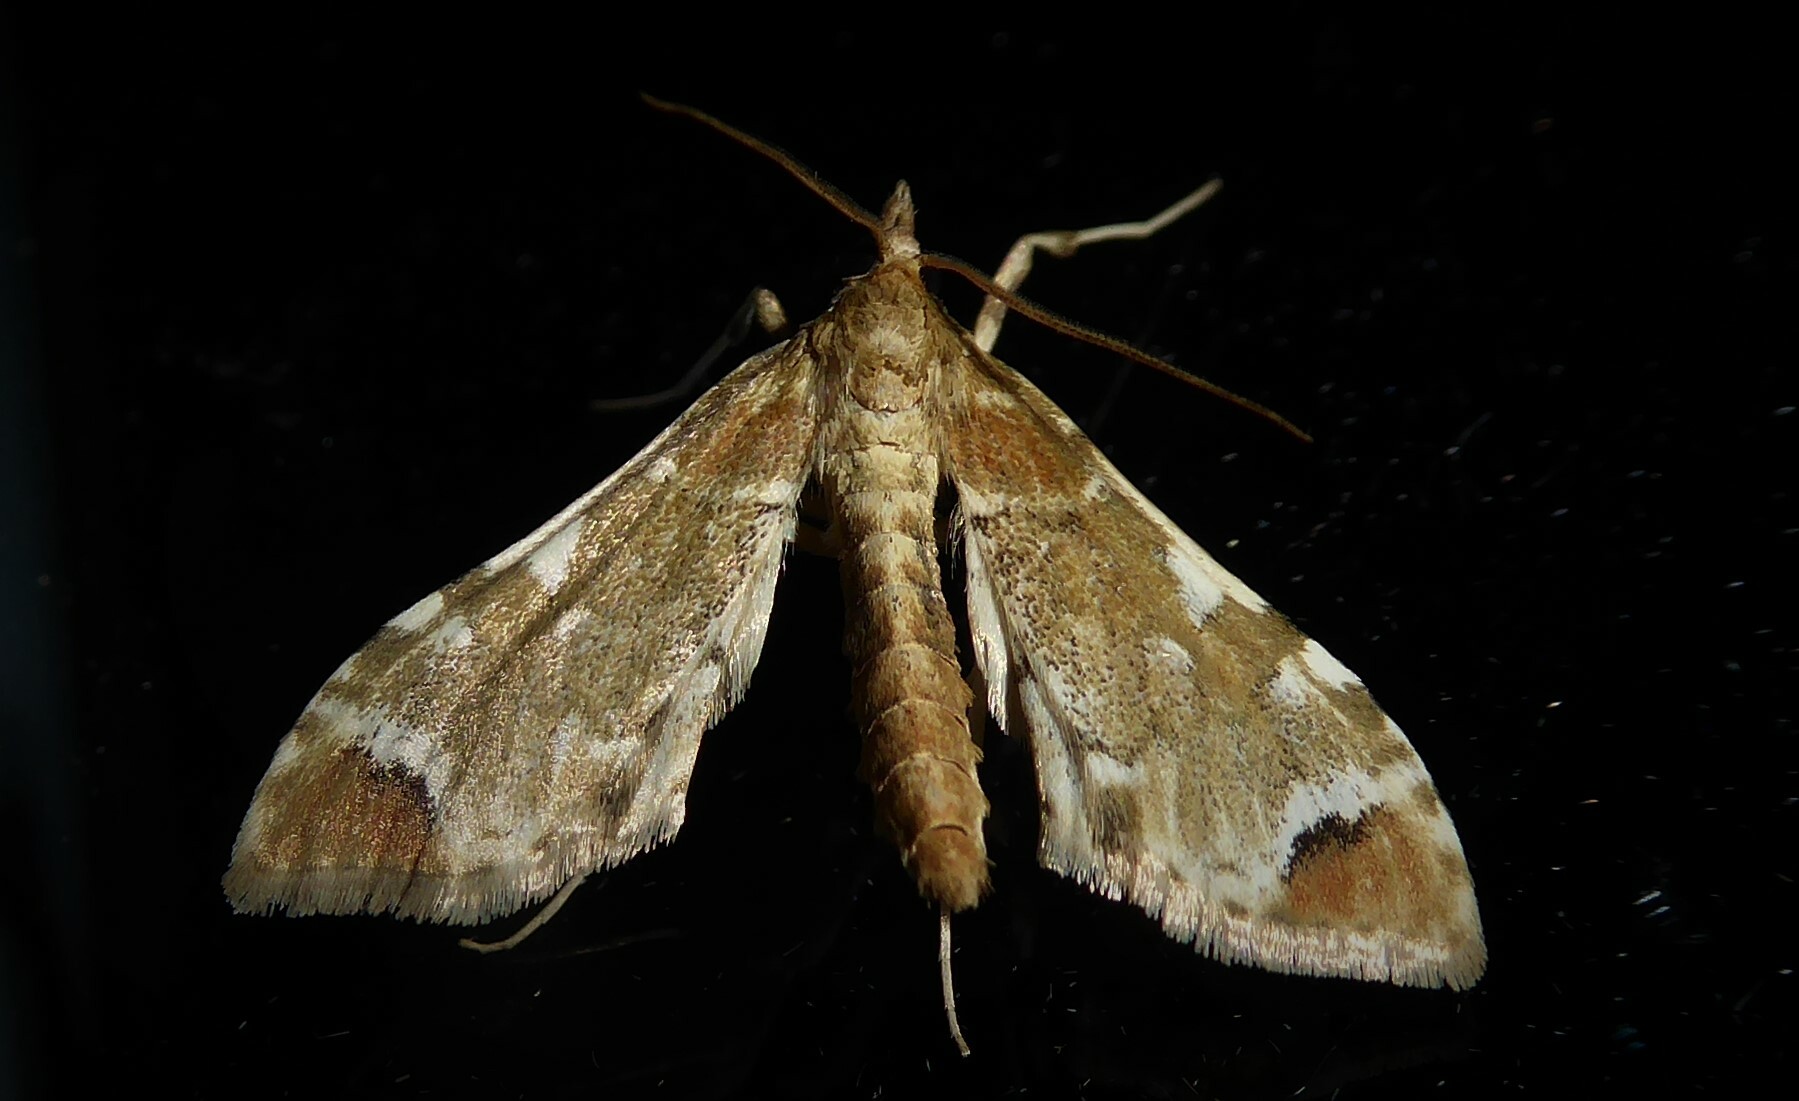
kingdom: Animalia
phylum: Arthropoda
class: Insecta
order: Lepidoptera
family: Crambidae
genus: Sceliodes
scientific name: Sceliodes cordalis
